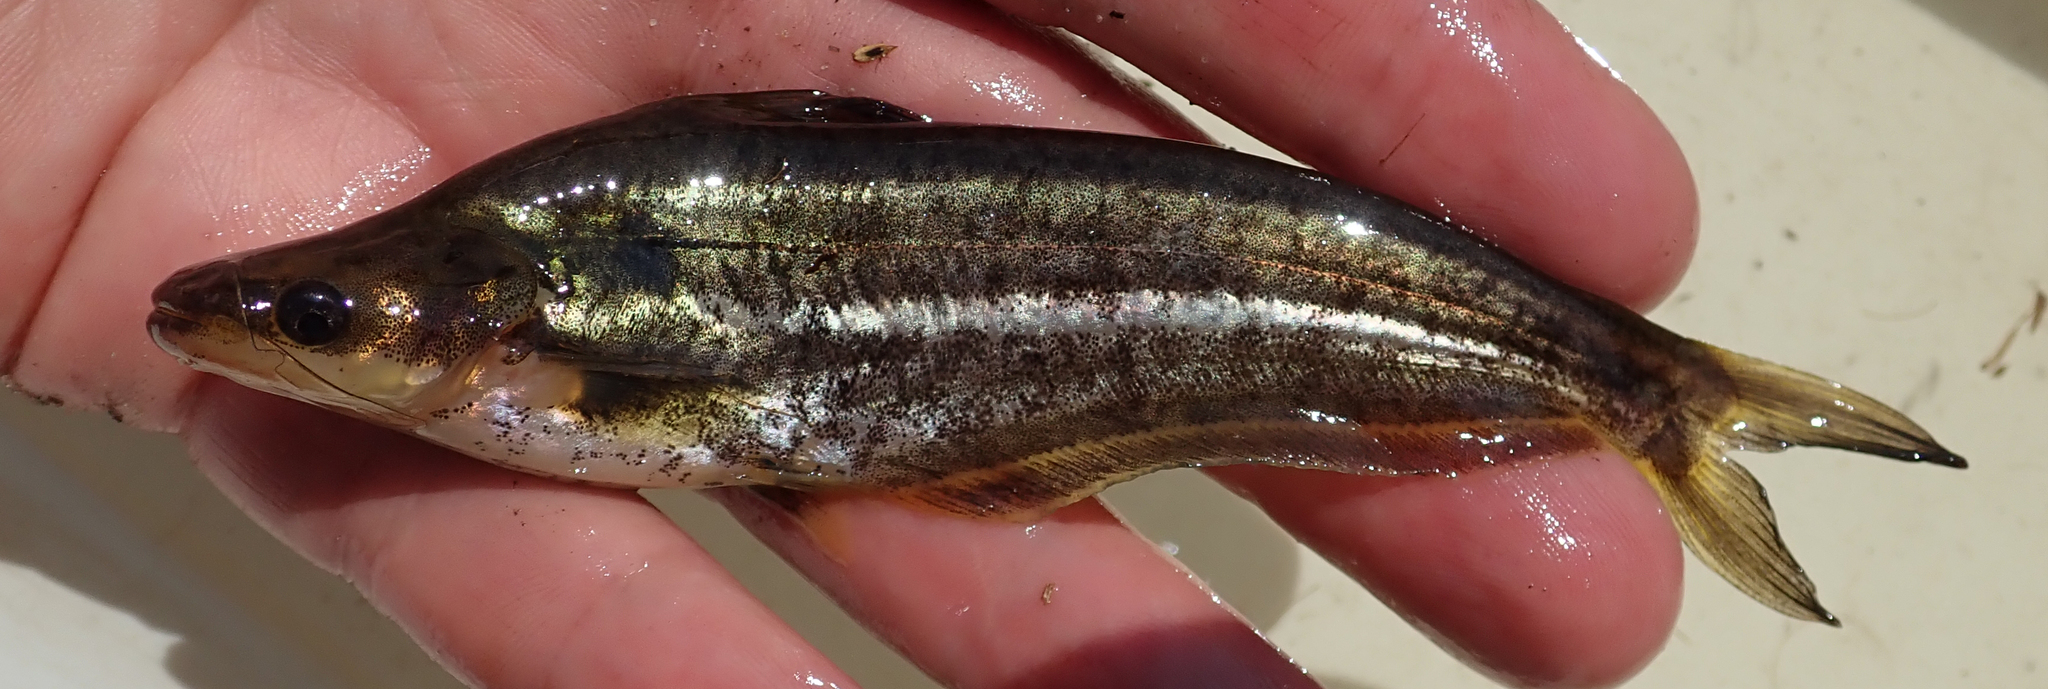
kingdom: Animalia
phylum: Chordata
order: Siluriformes
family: Schilbeidae
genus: Schilbe
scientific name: Schilbe intermedius
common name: Silver catfish
